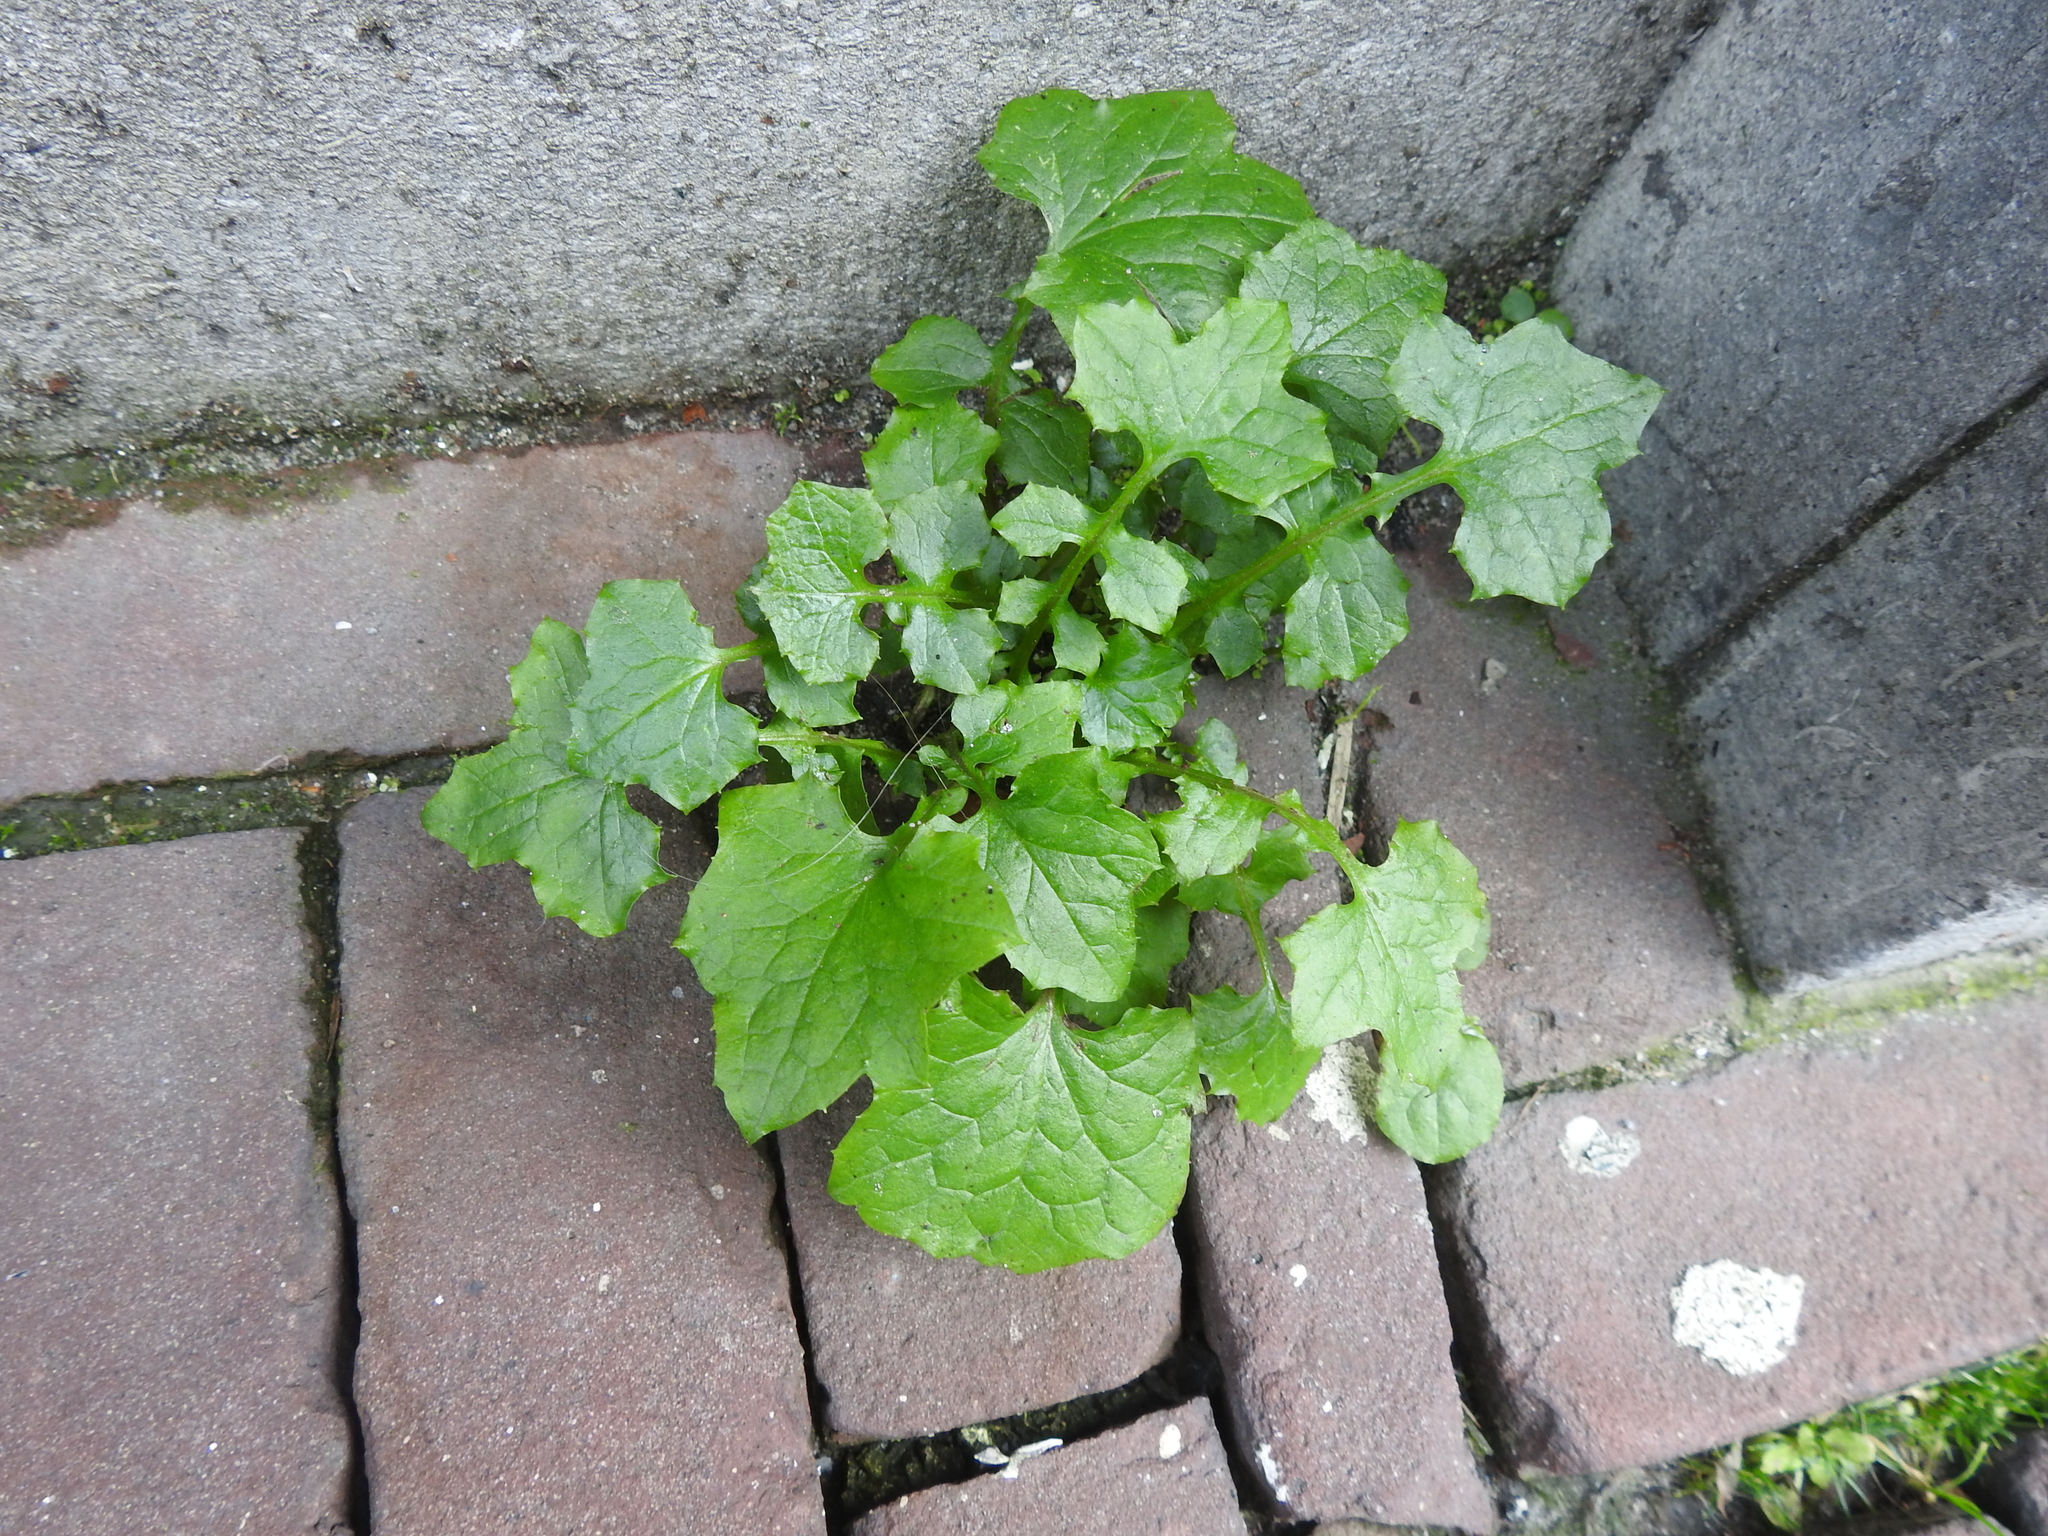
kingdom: Plantae
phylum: Tracheophyta
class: Magnoliopsida
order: Asterales
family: Asteraceae
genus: Mycelis
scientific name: Mycelis muralis
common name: Wall lettuce
